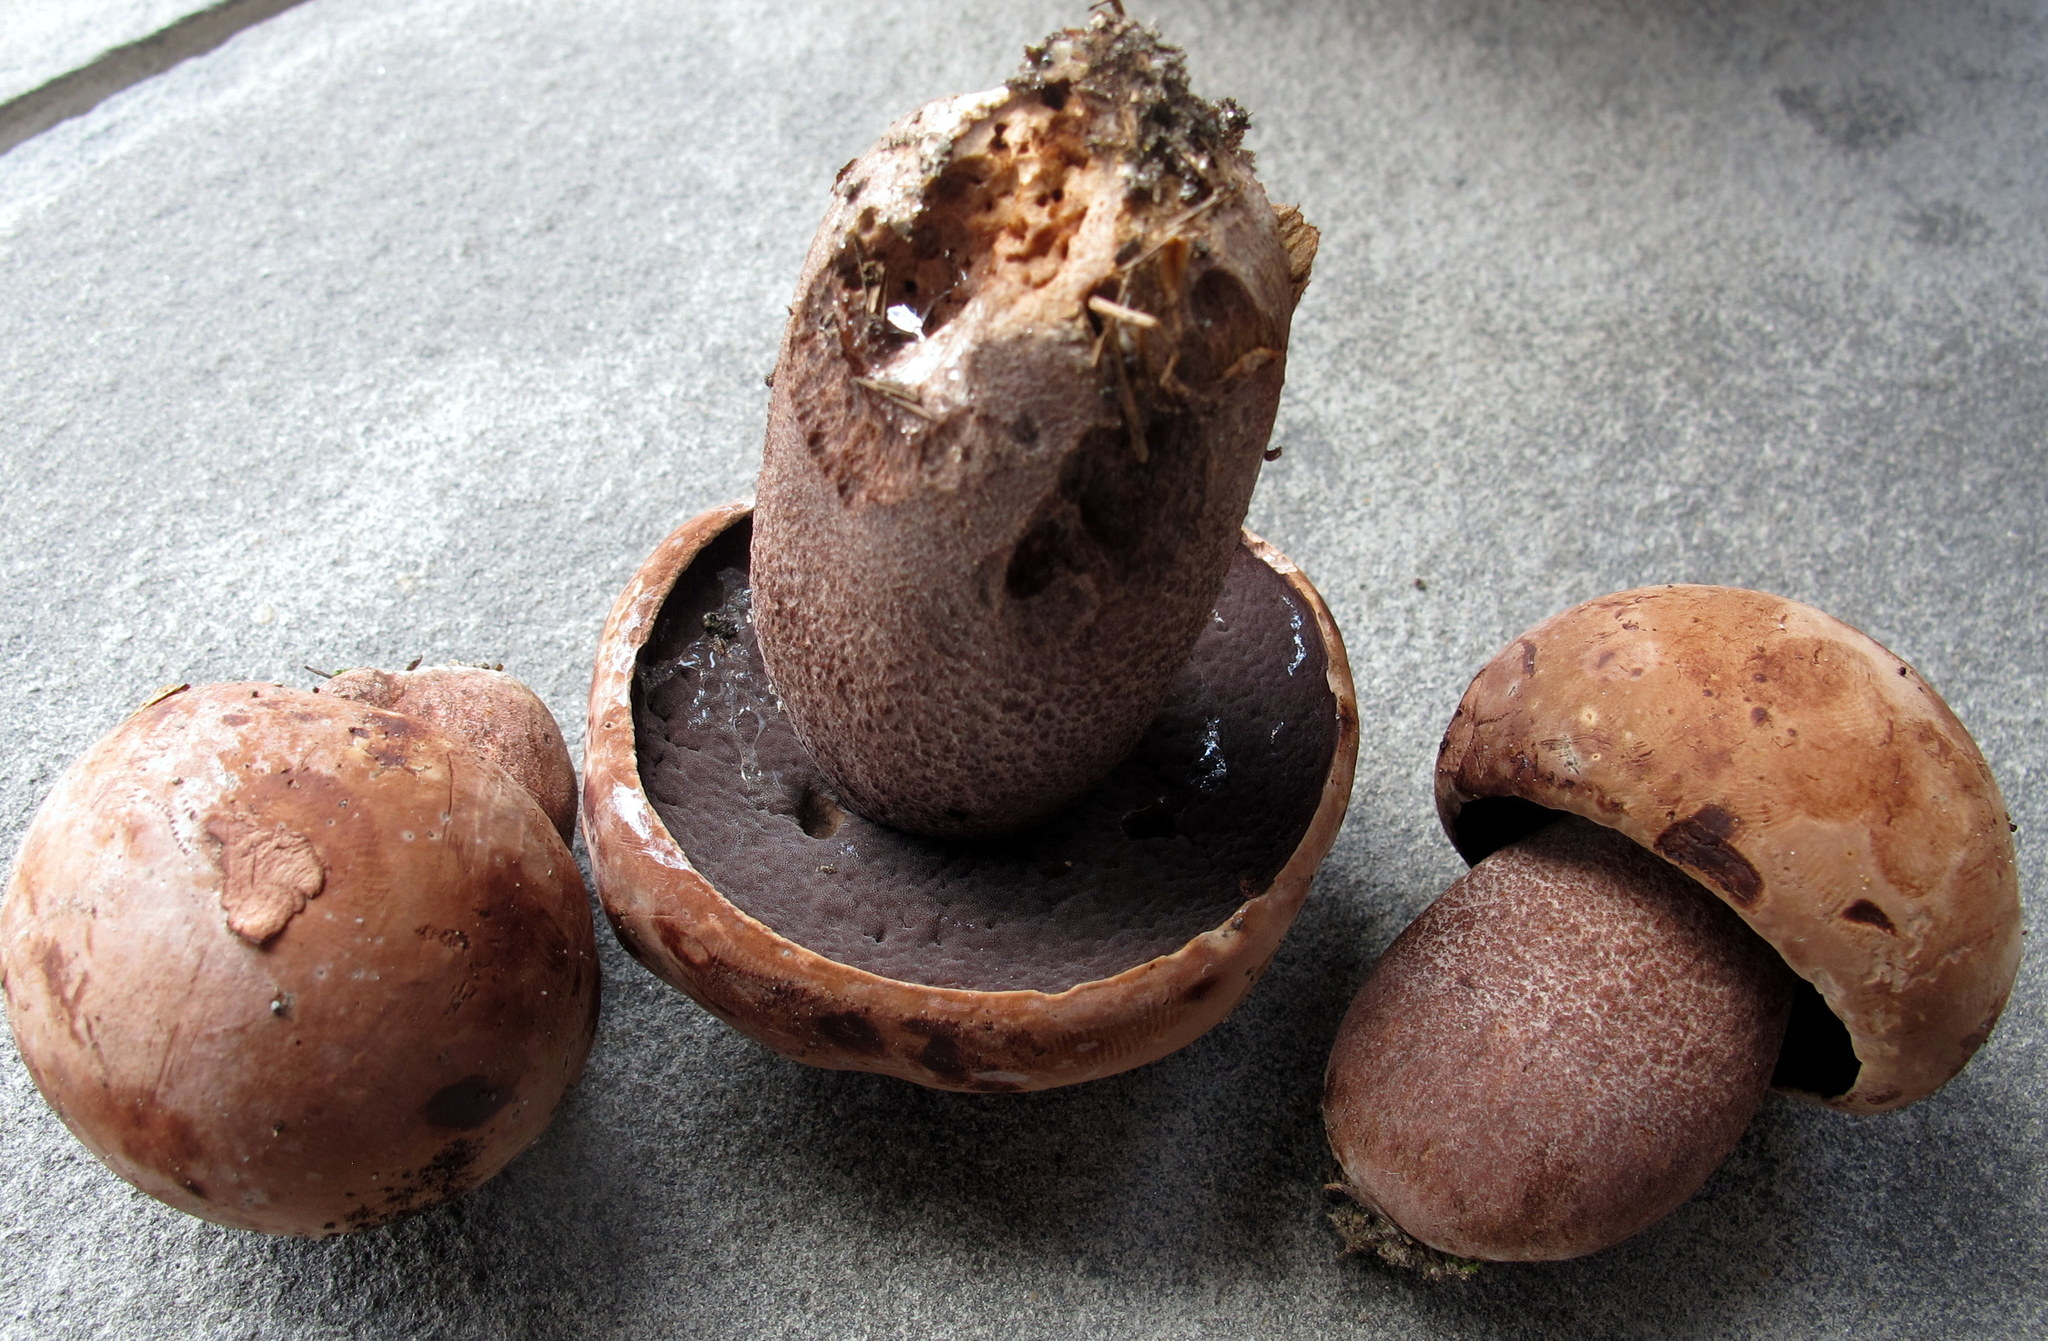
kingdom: Fungi
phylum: Basidiomycota
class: Agaricomycetes
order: Boletales
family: Boletaceae
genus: Sutorius
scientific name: Sutorius eximius
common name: Lilac-brown bolete
